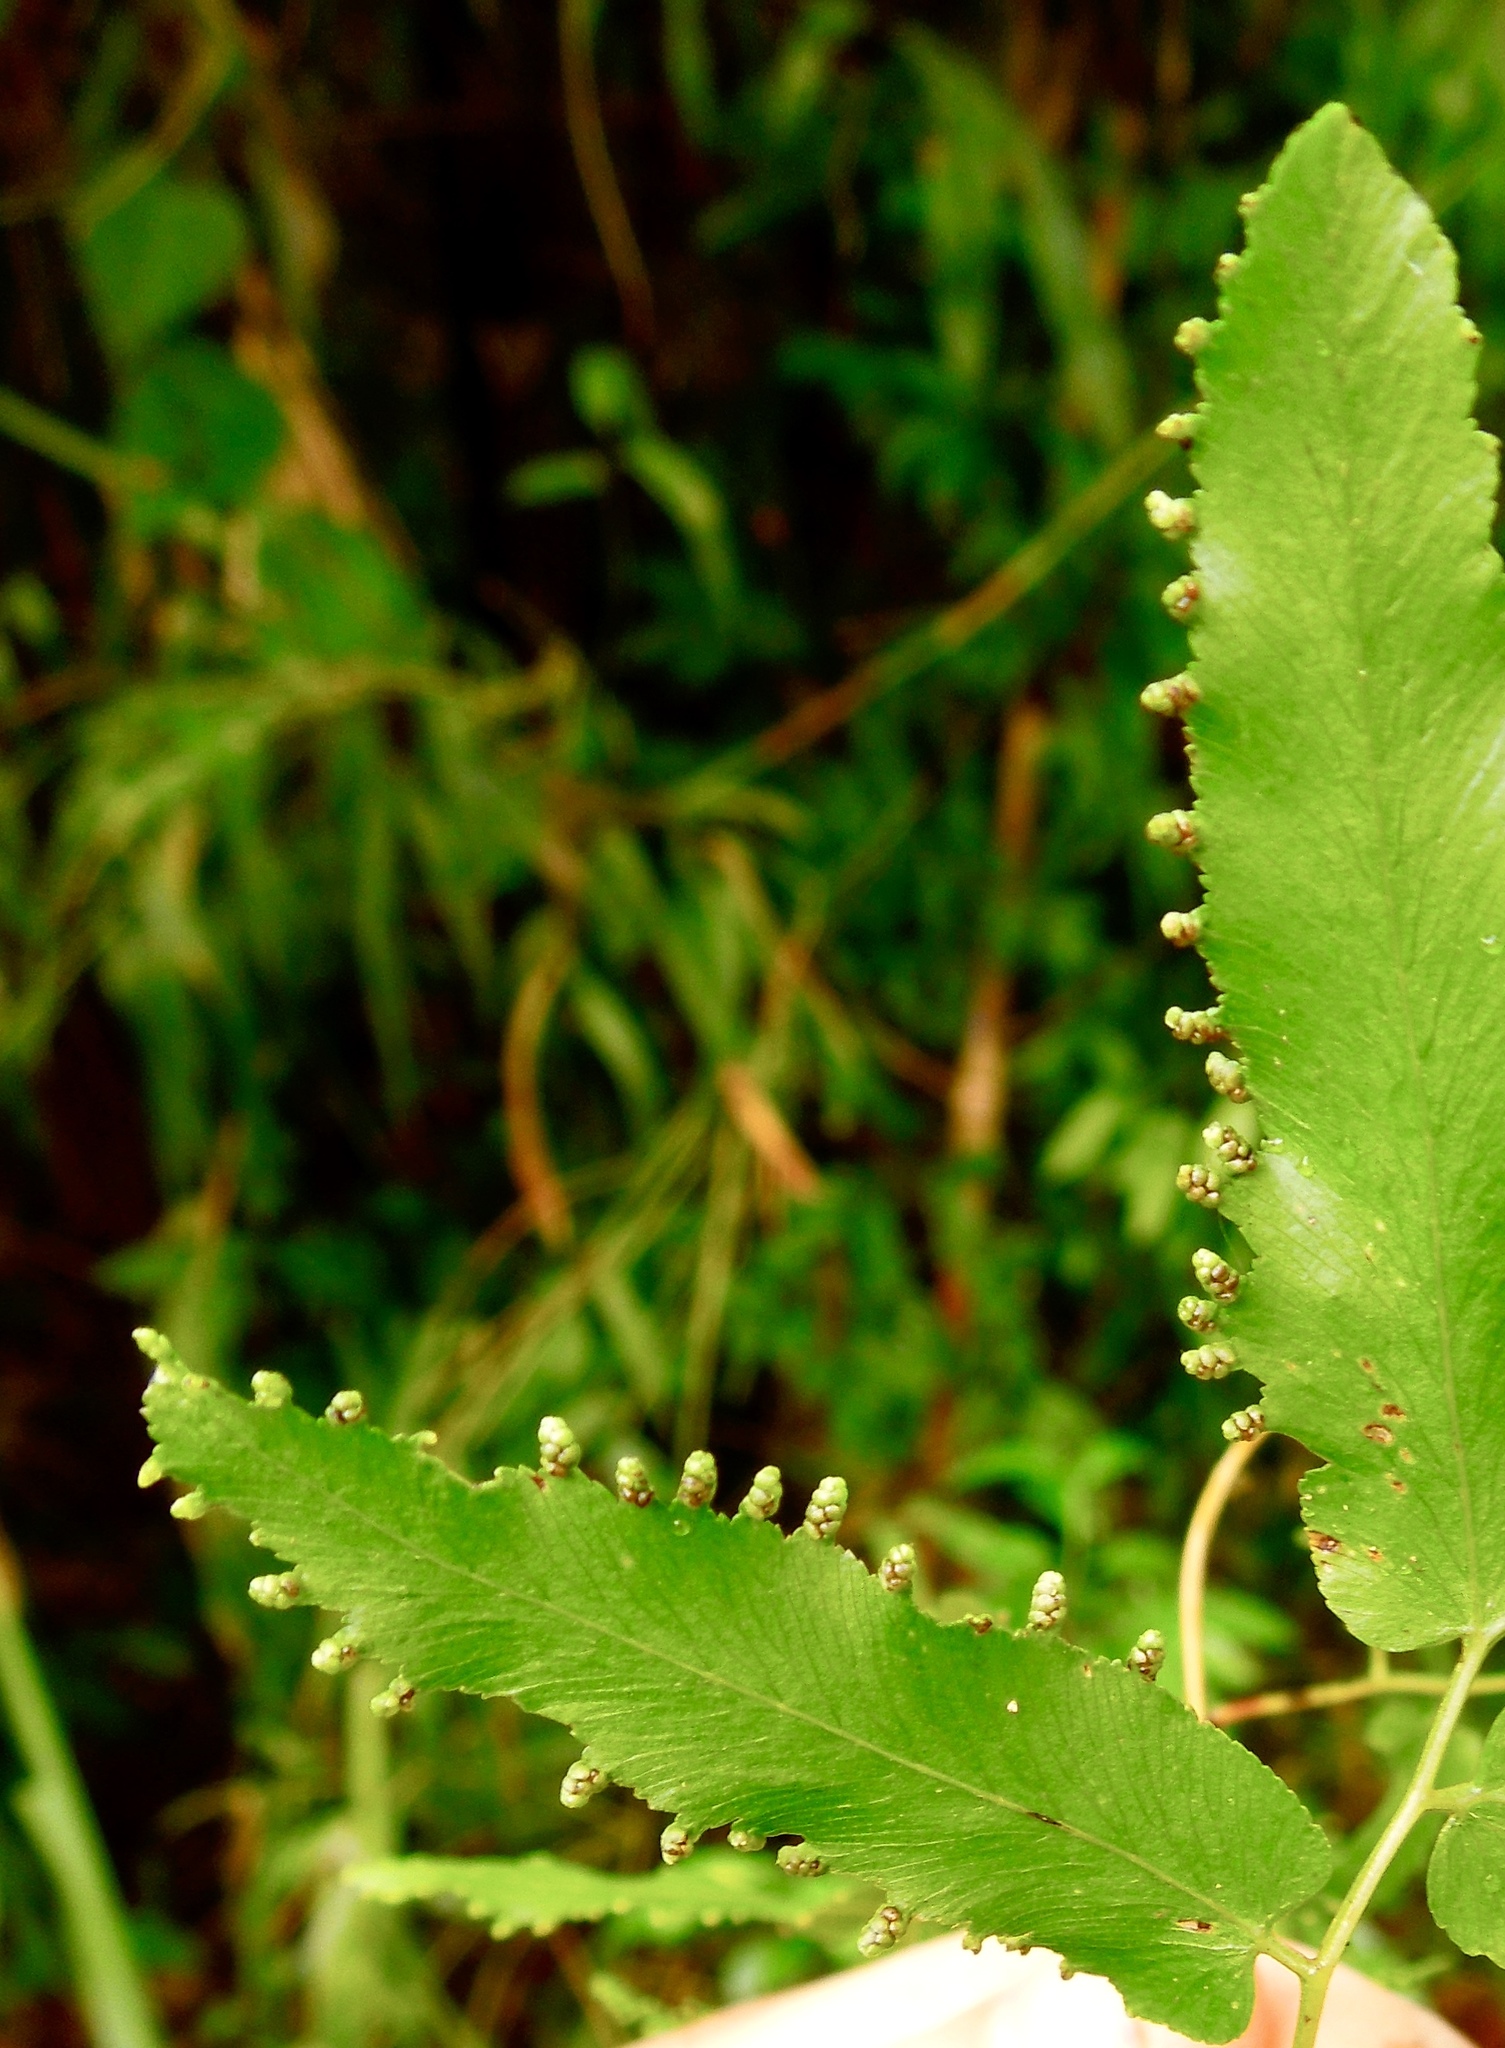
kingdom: Plantae
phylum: Tracheophyta
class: Polypodiopsida
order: Schizaeales
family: Lygodiaceae
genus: Lygodium
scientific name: Lygodium flexuosum
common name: Maidenhair creeper
